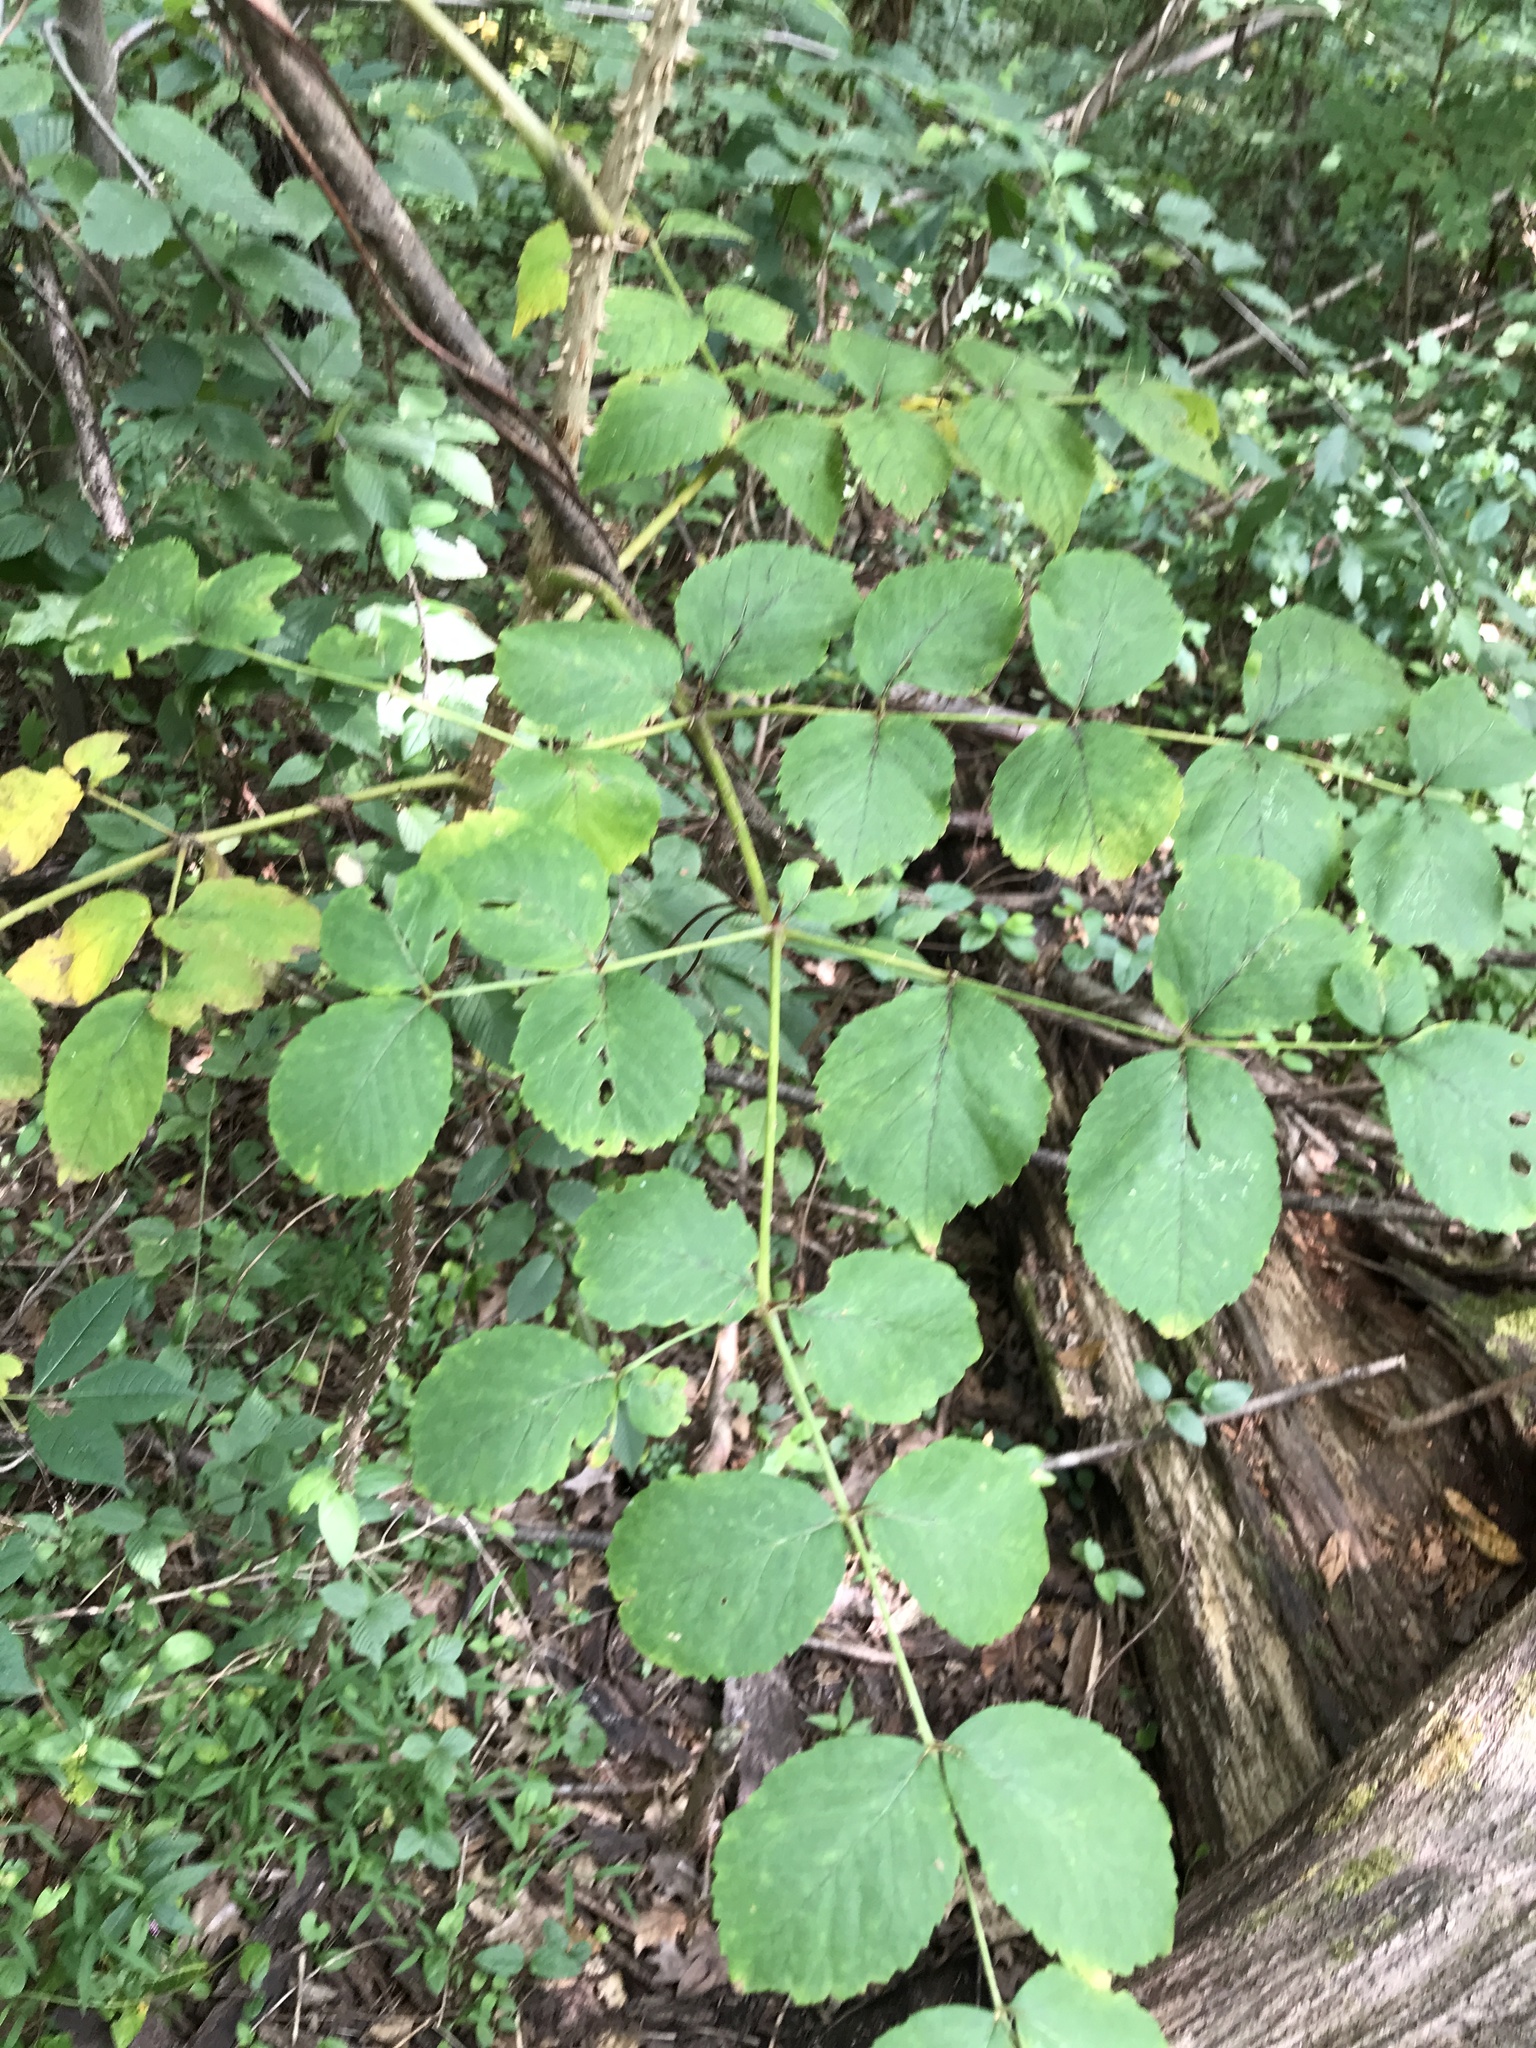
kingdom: Plantae
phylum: Tracheophyta
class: Magnoliopsida
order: Apiales
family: Araliaceae
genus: Aralia
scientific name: Aralia elata
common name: Japanese angelica-tree
